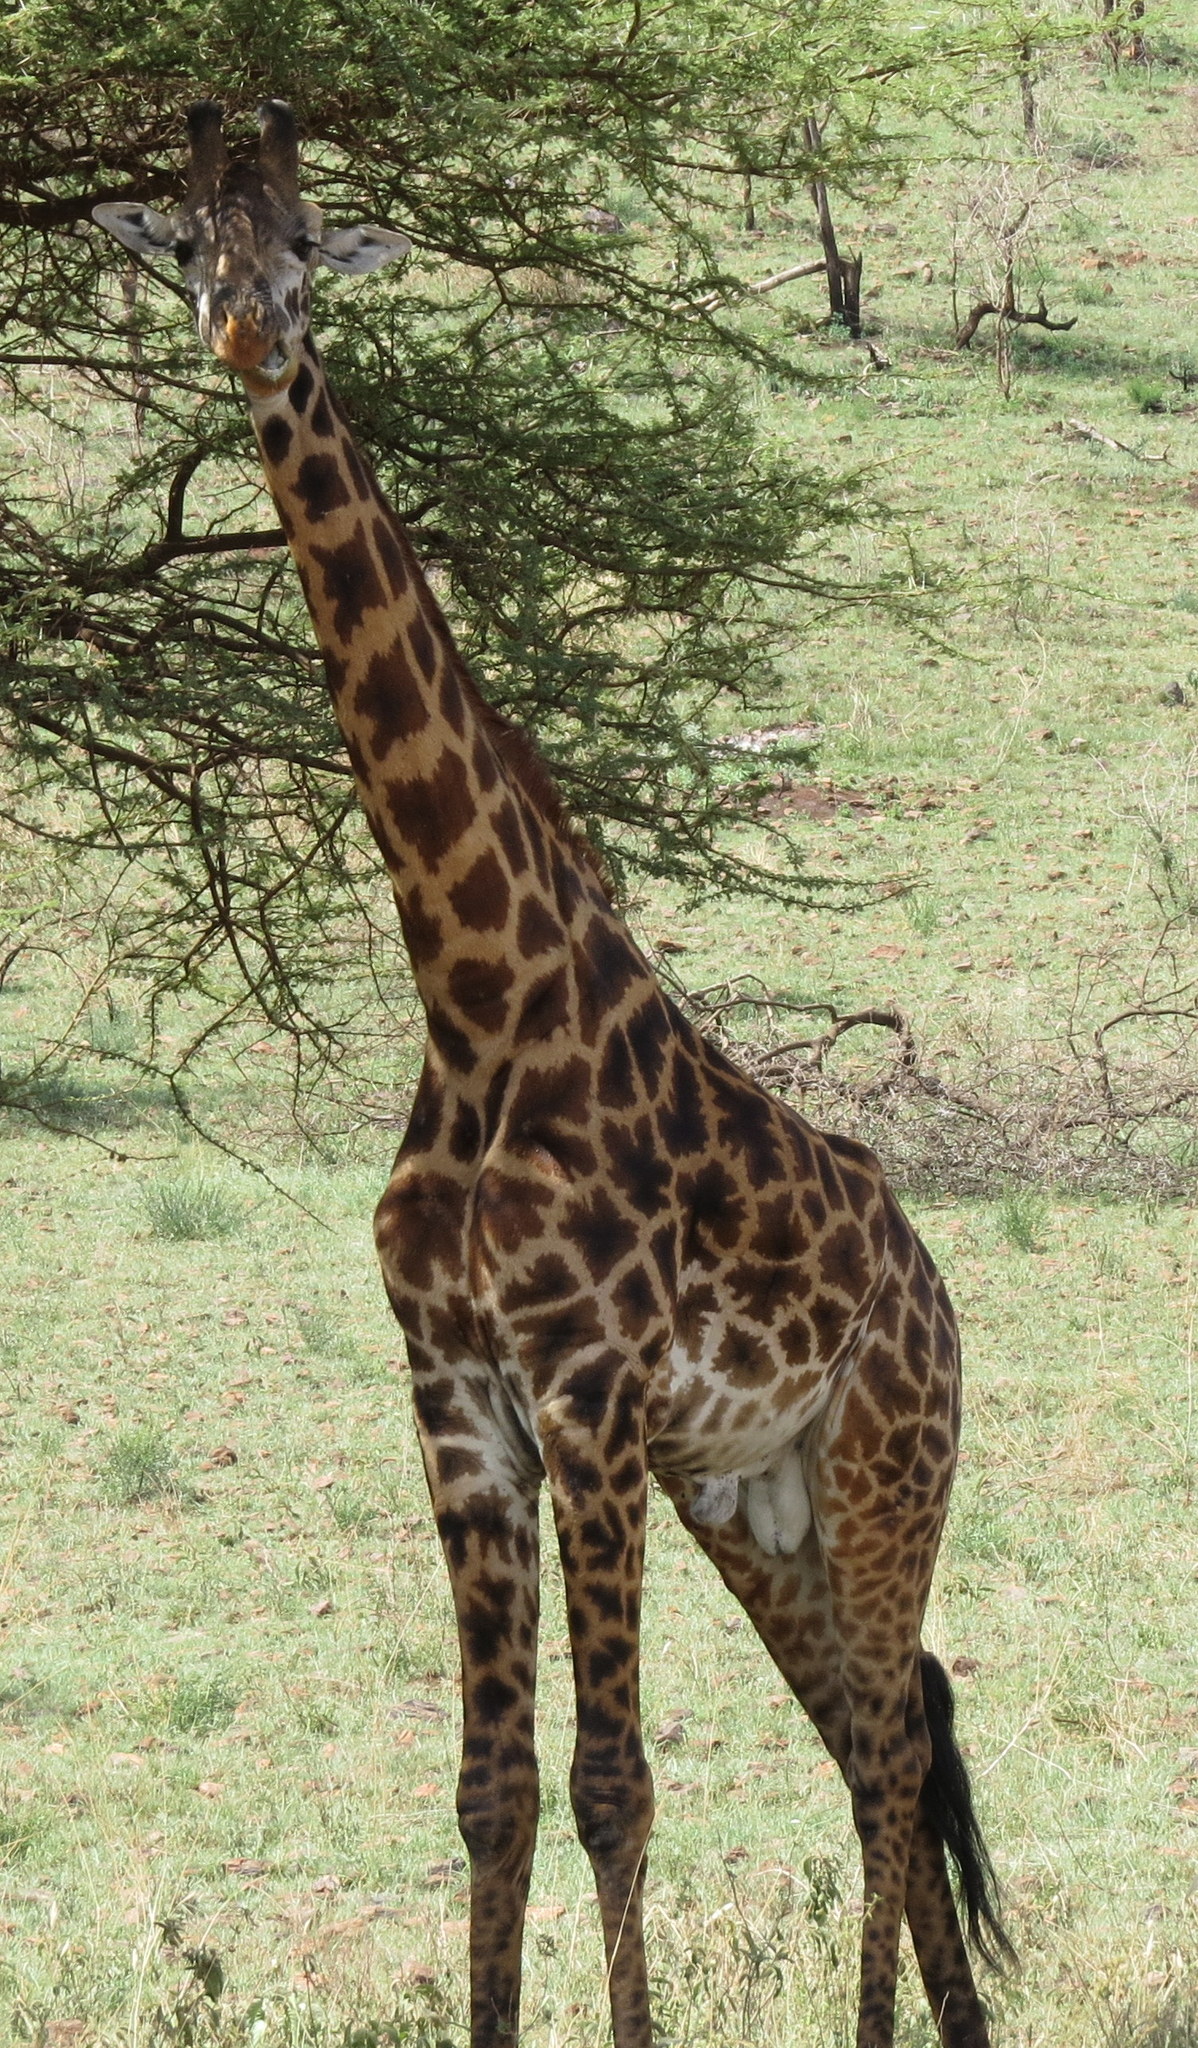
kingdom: Animalia
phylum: Chordata
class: Mammalia
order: Artiodactyla
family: Giraffidae
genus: Giraffa
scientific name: Giraffa tippelskirchi
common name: Masai giraffe
